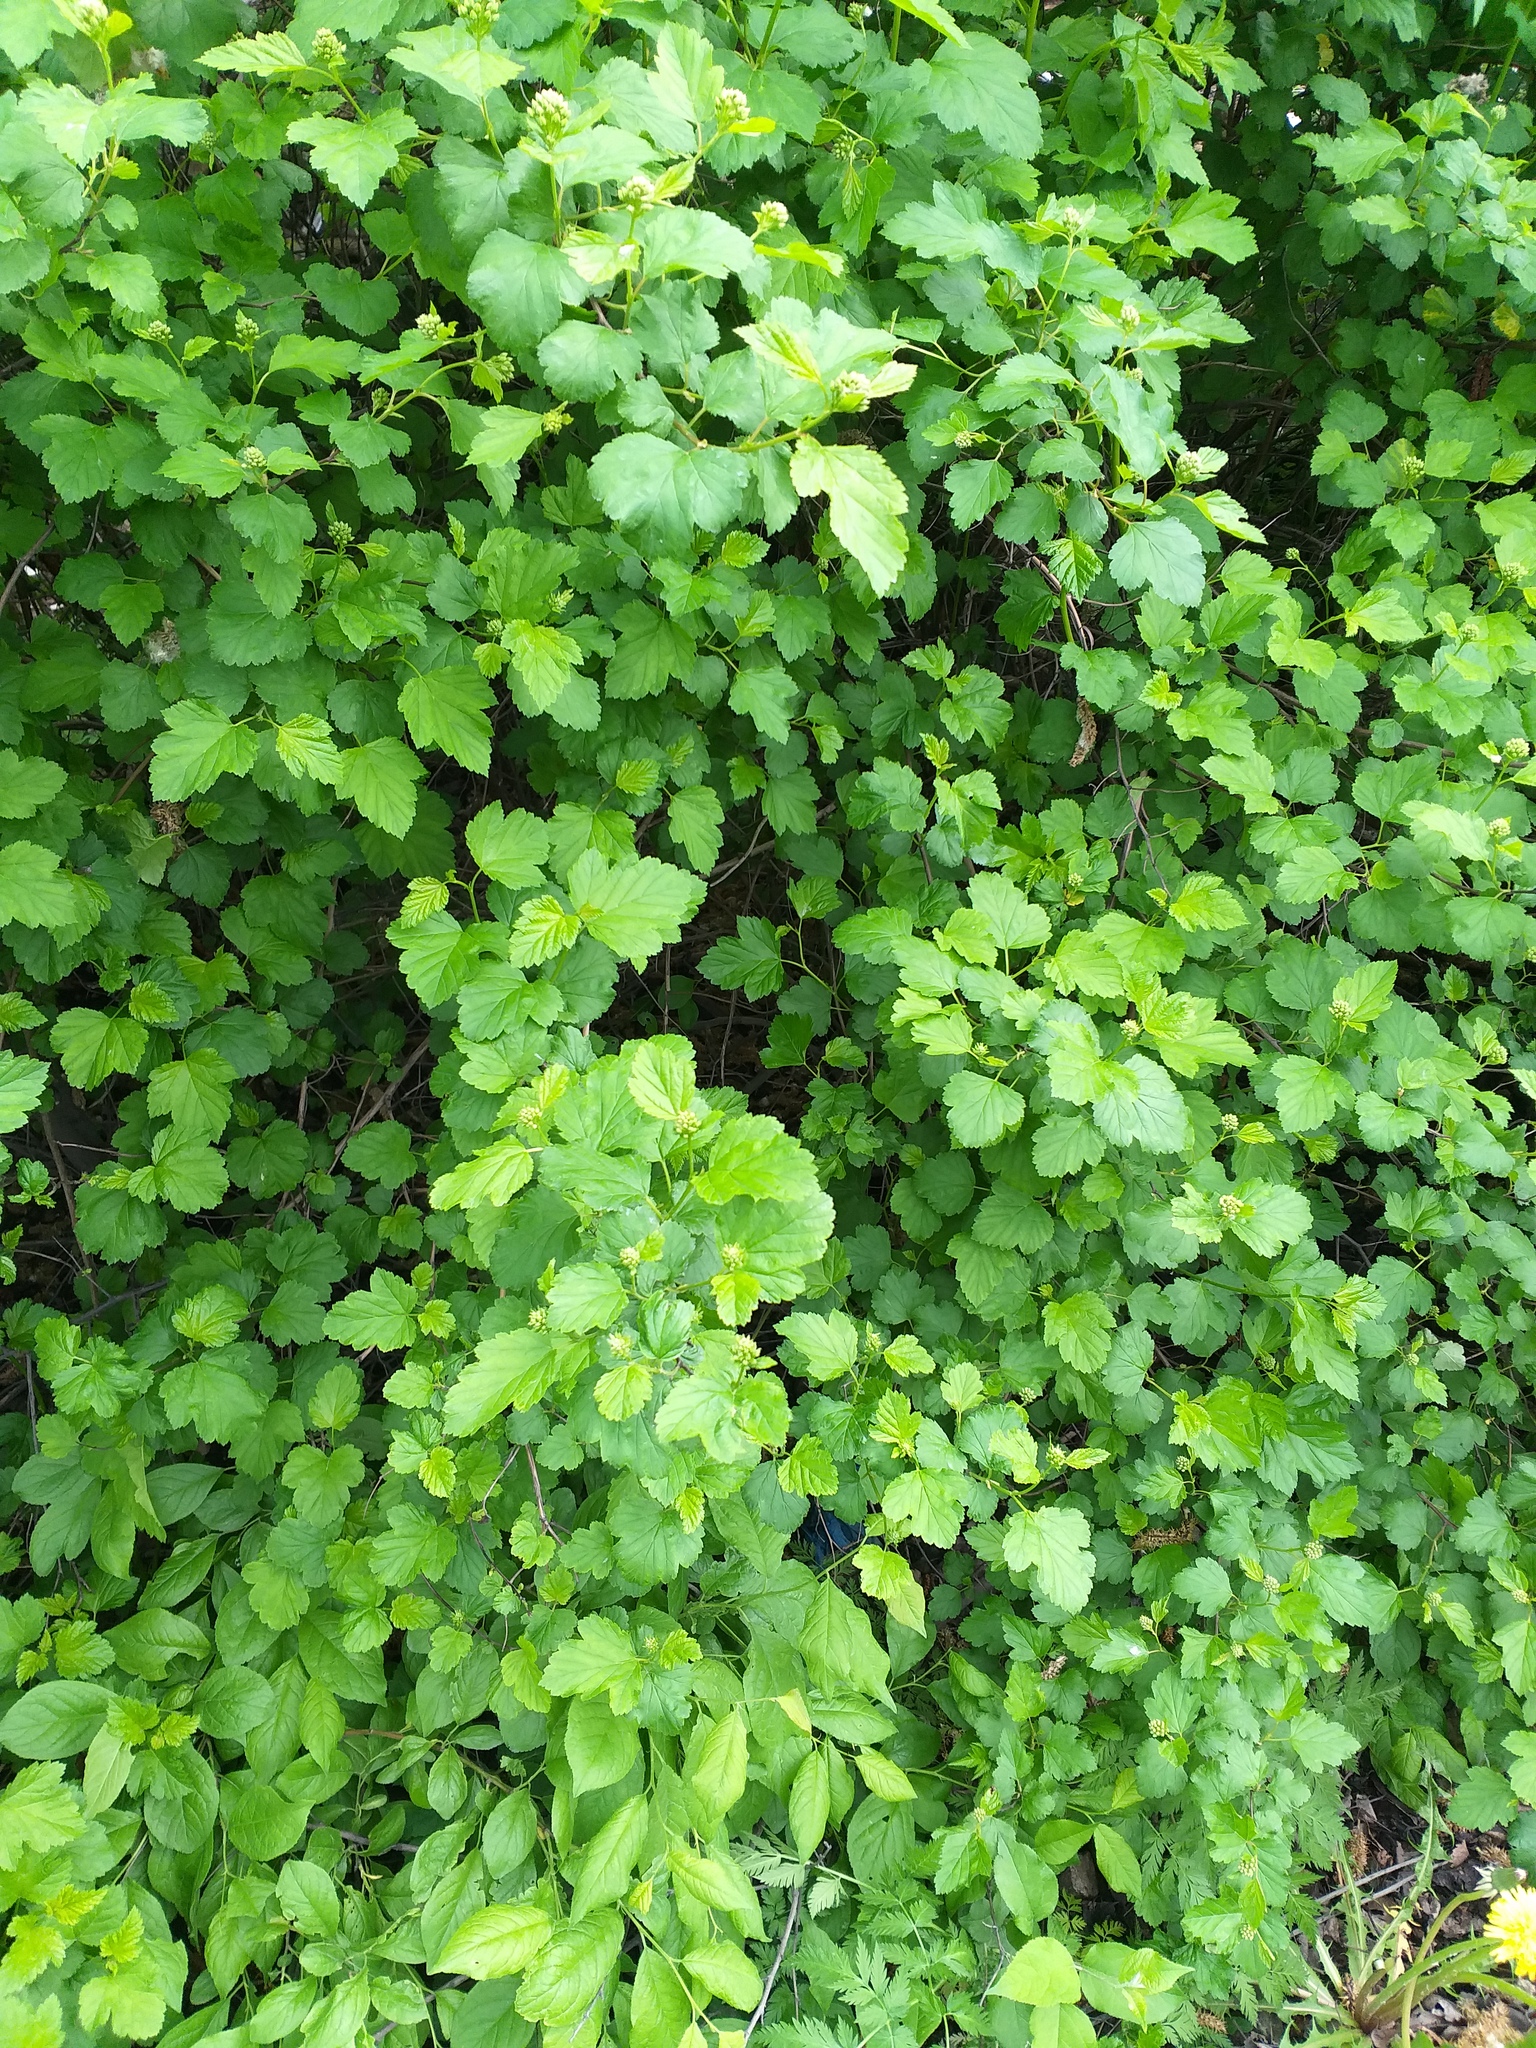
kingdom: Plantae
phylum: Tracheophyta
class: Magnoliopsida
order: Rosales
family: Rosaceae
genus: Physocarpus
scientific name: Physocarpus opulifolius
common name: Ninebark
